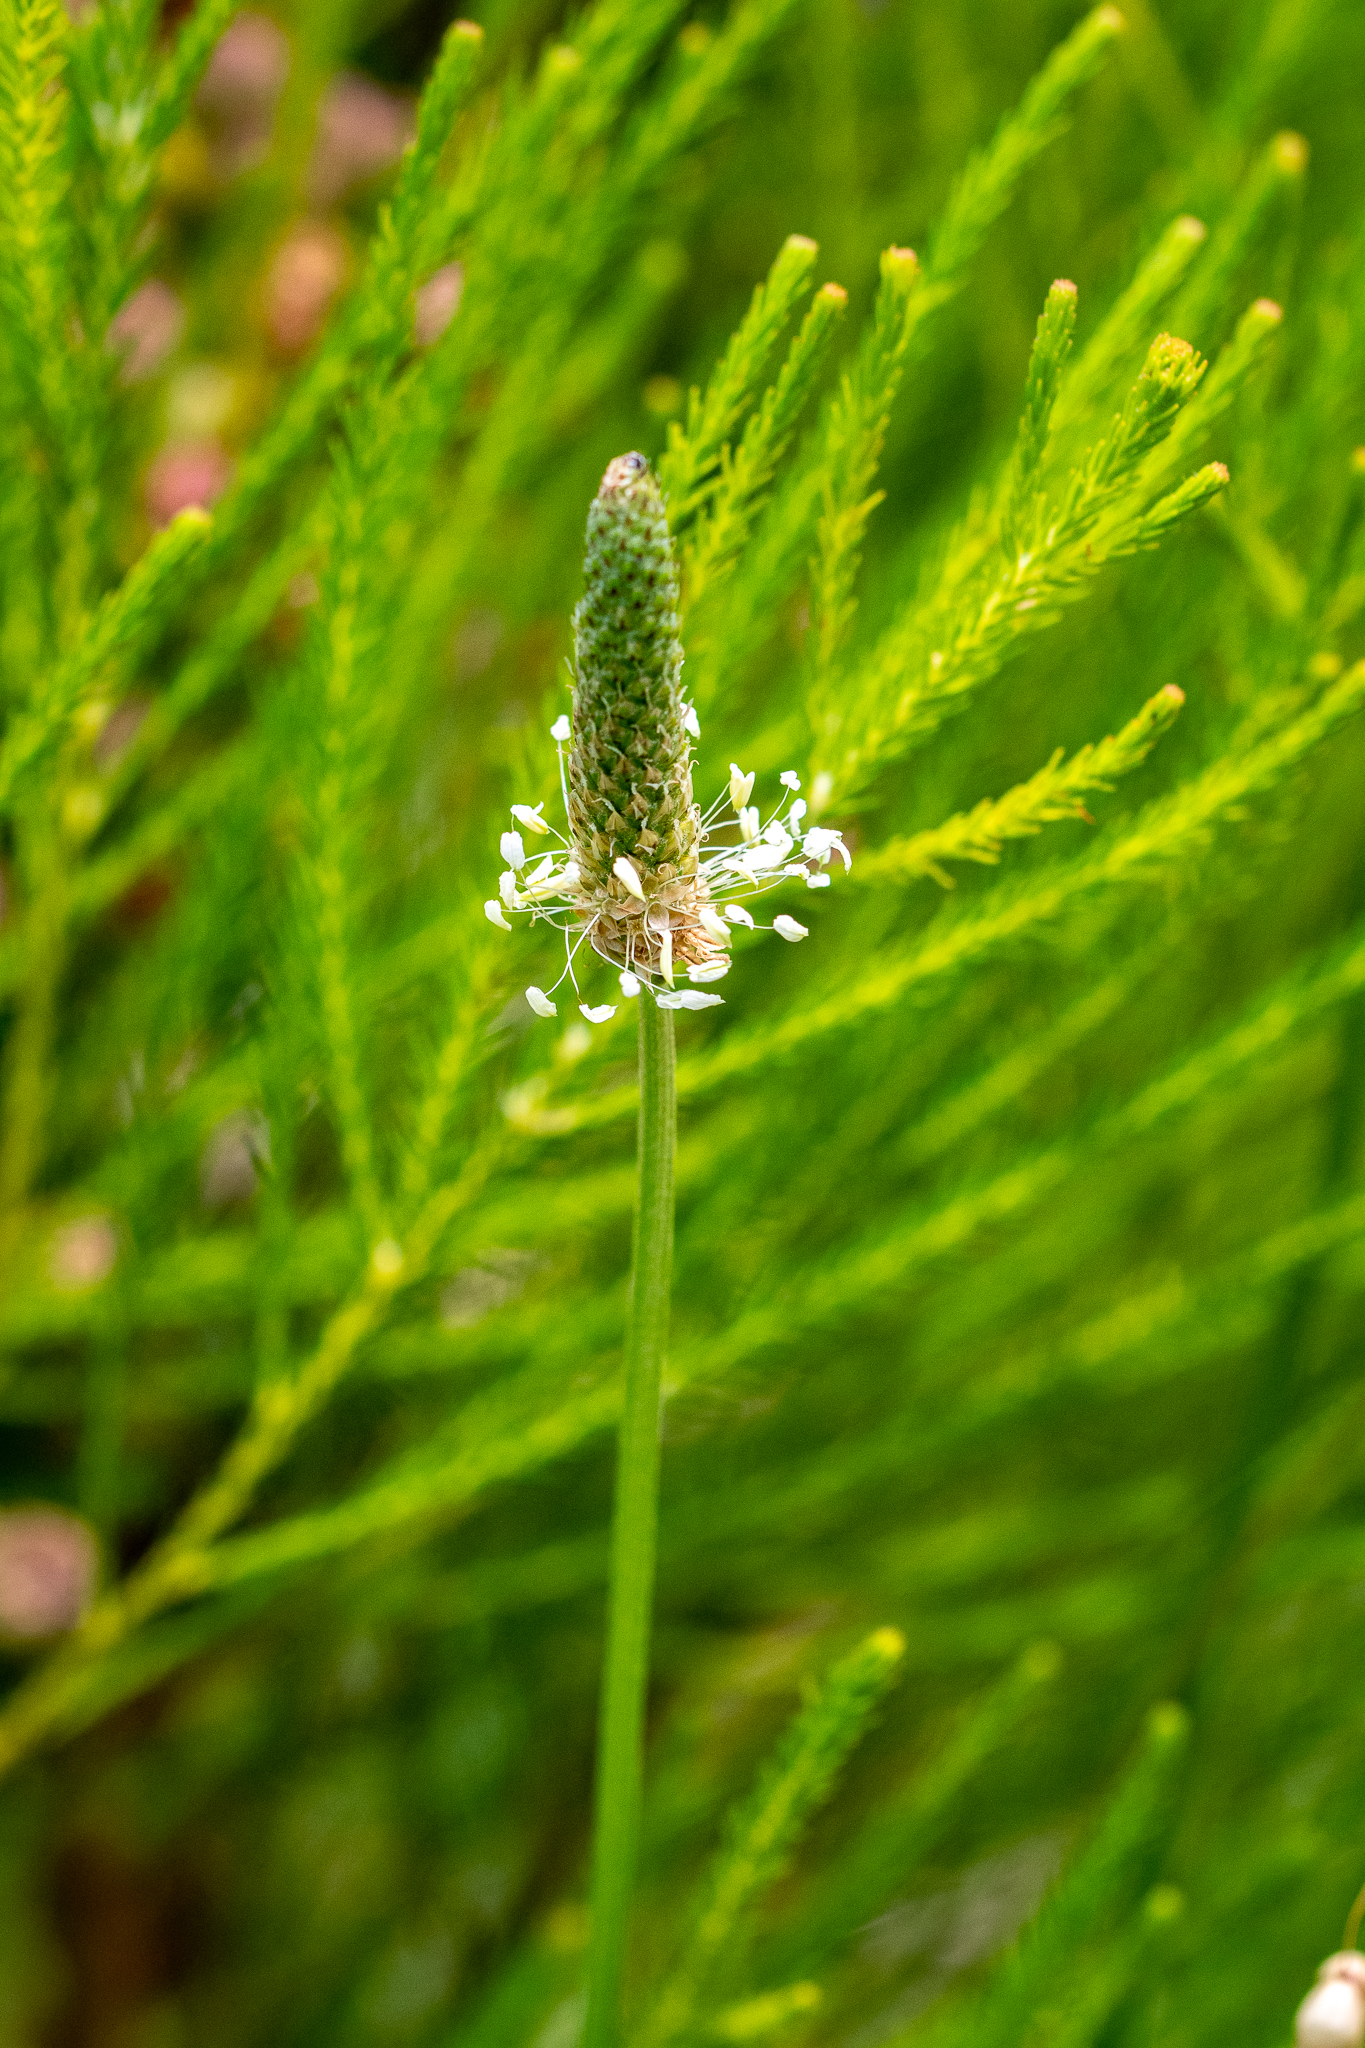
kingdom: Plantae
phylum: Tracheophyta
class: Magnoliopsida
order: Lamiales
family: Plantaginaceae
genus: Plantago
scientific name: Plantago lanceolata
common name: Ribwort plantain
